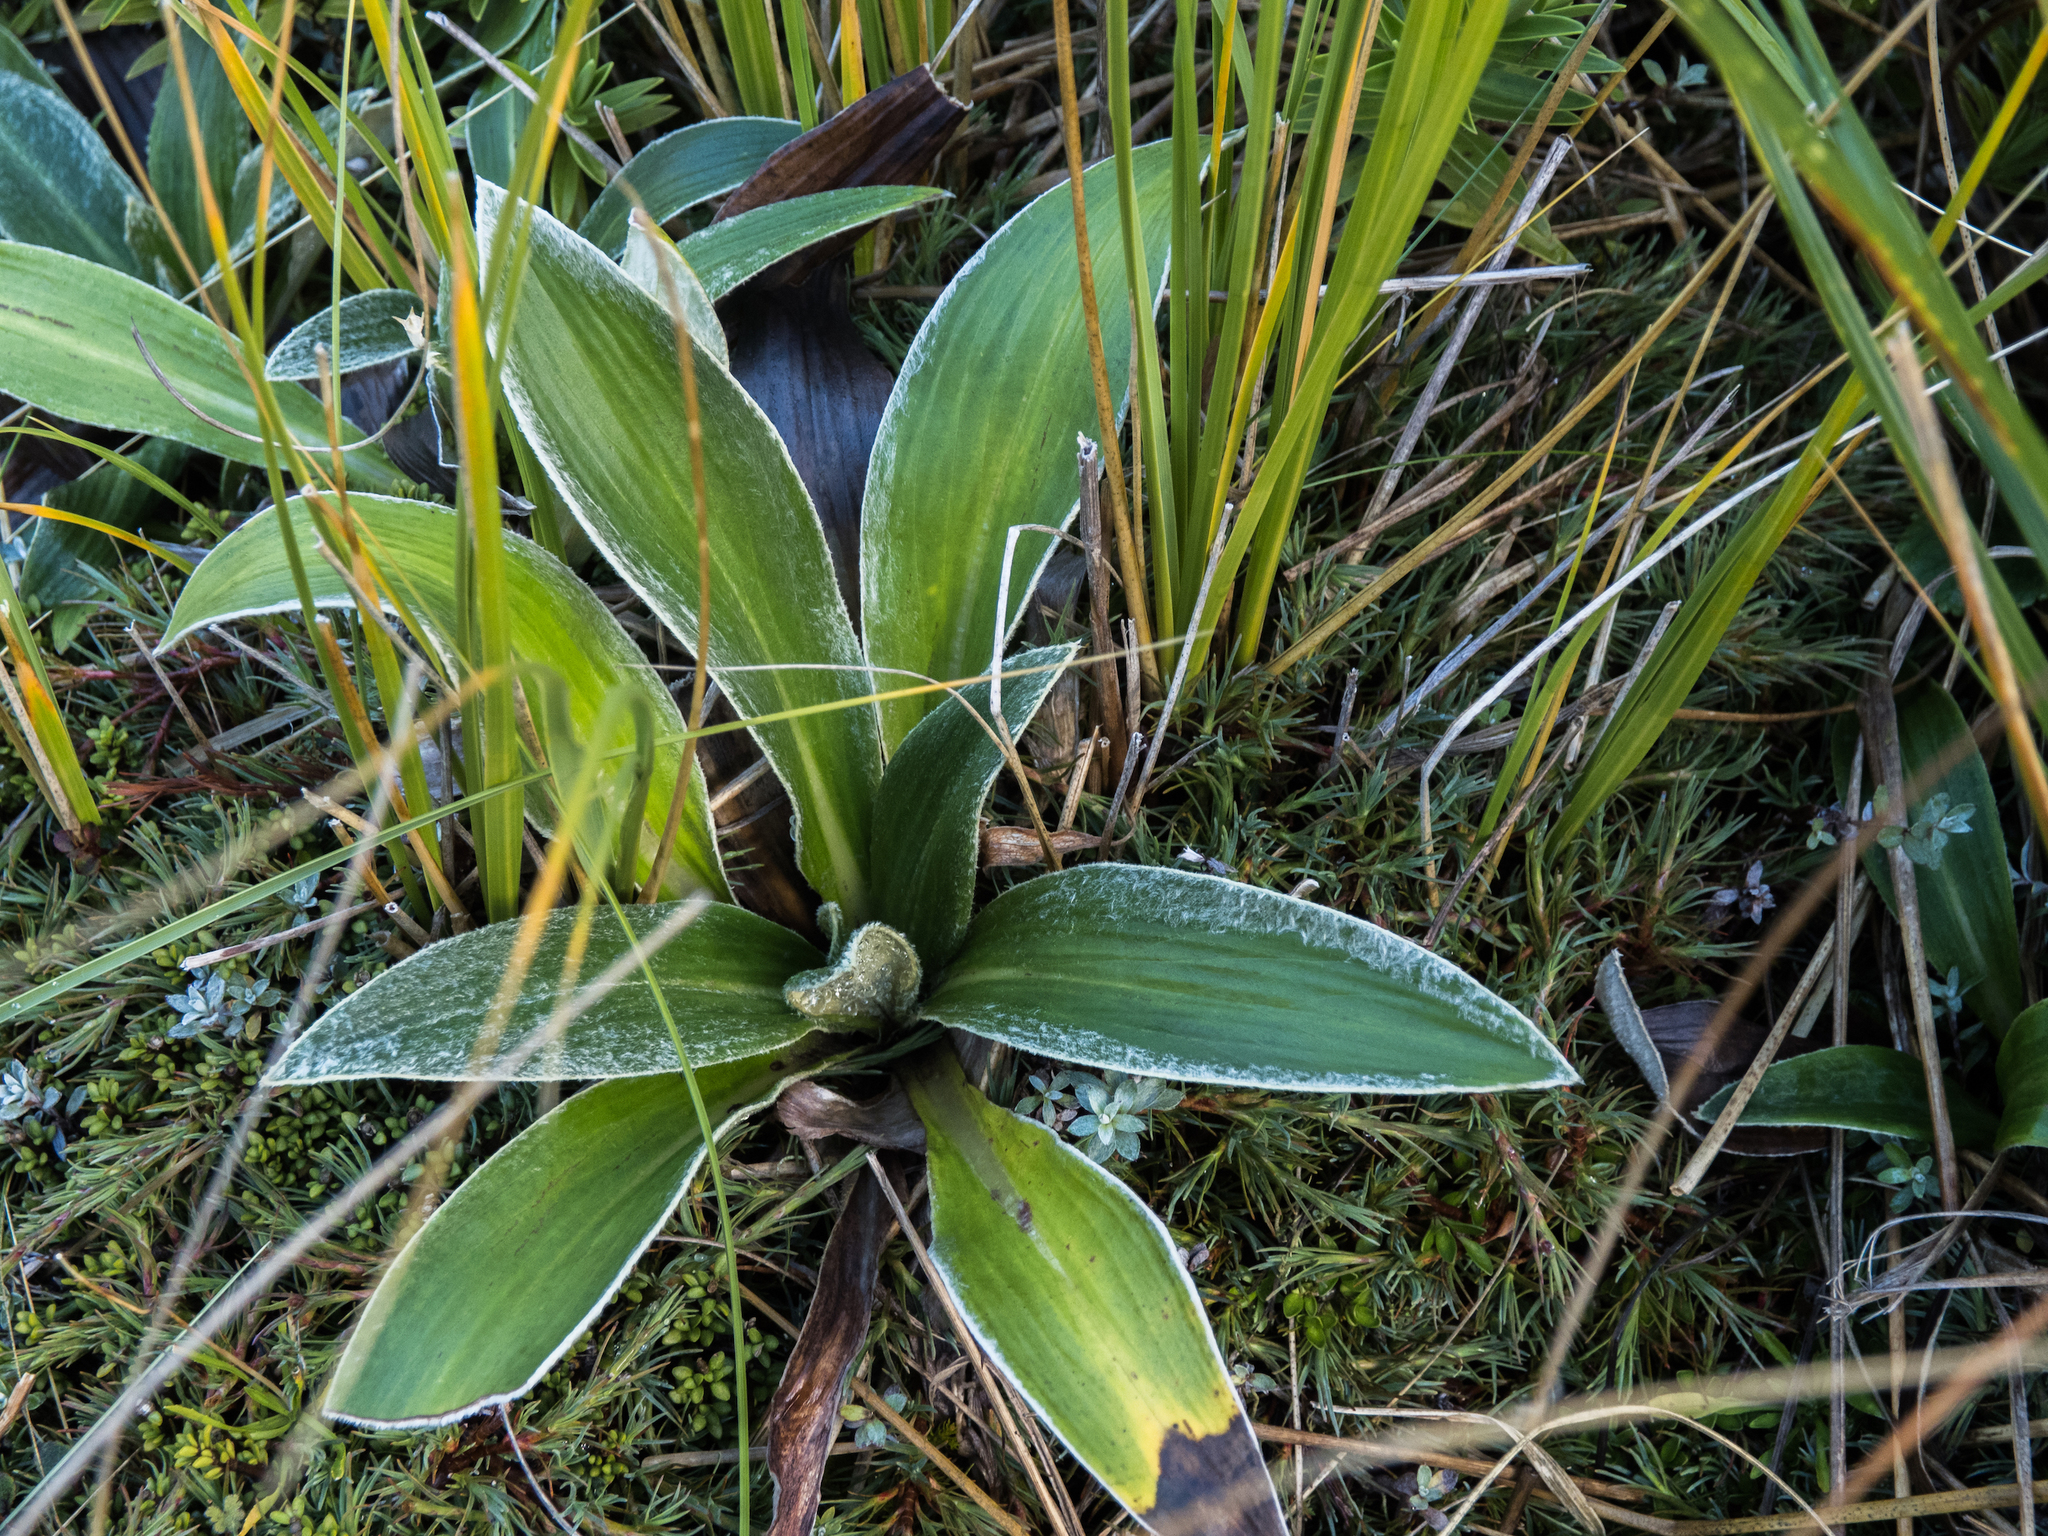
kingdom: Plantae
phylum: Tracheophyta
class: Magnoliopsida
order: Asterales
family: Asteraceae
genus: Celmisia
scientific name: Celmisia verbascifolia
